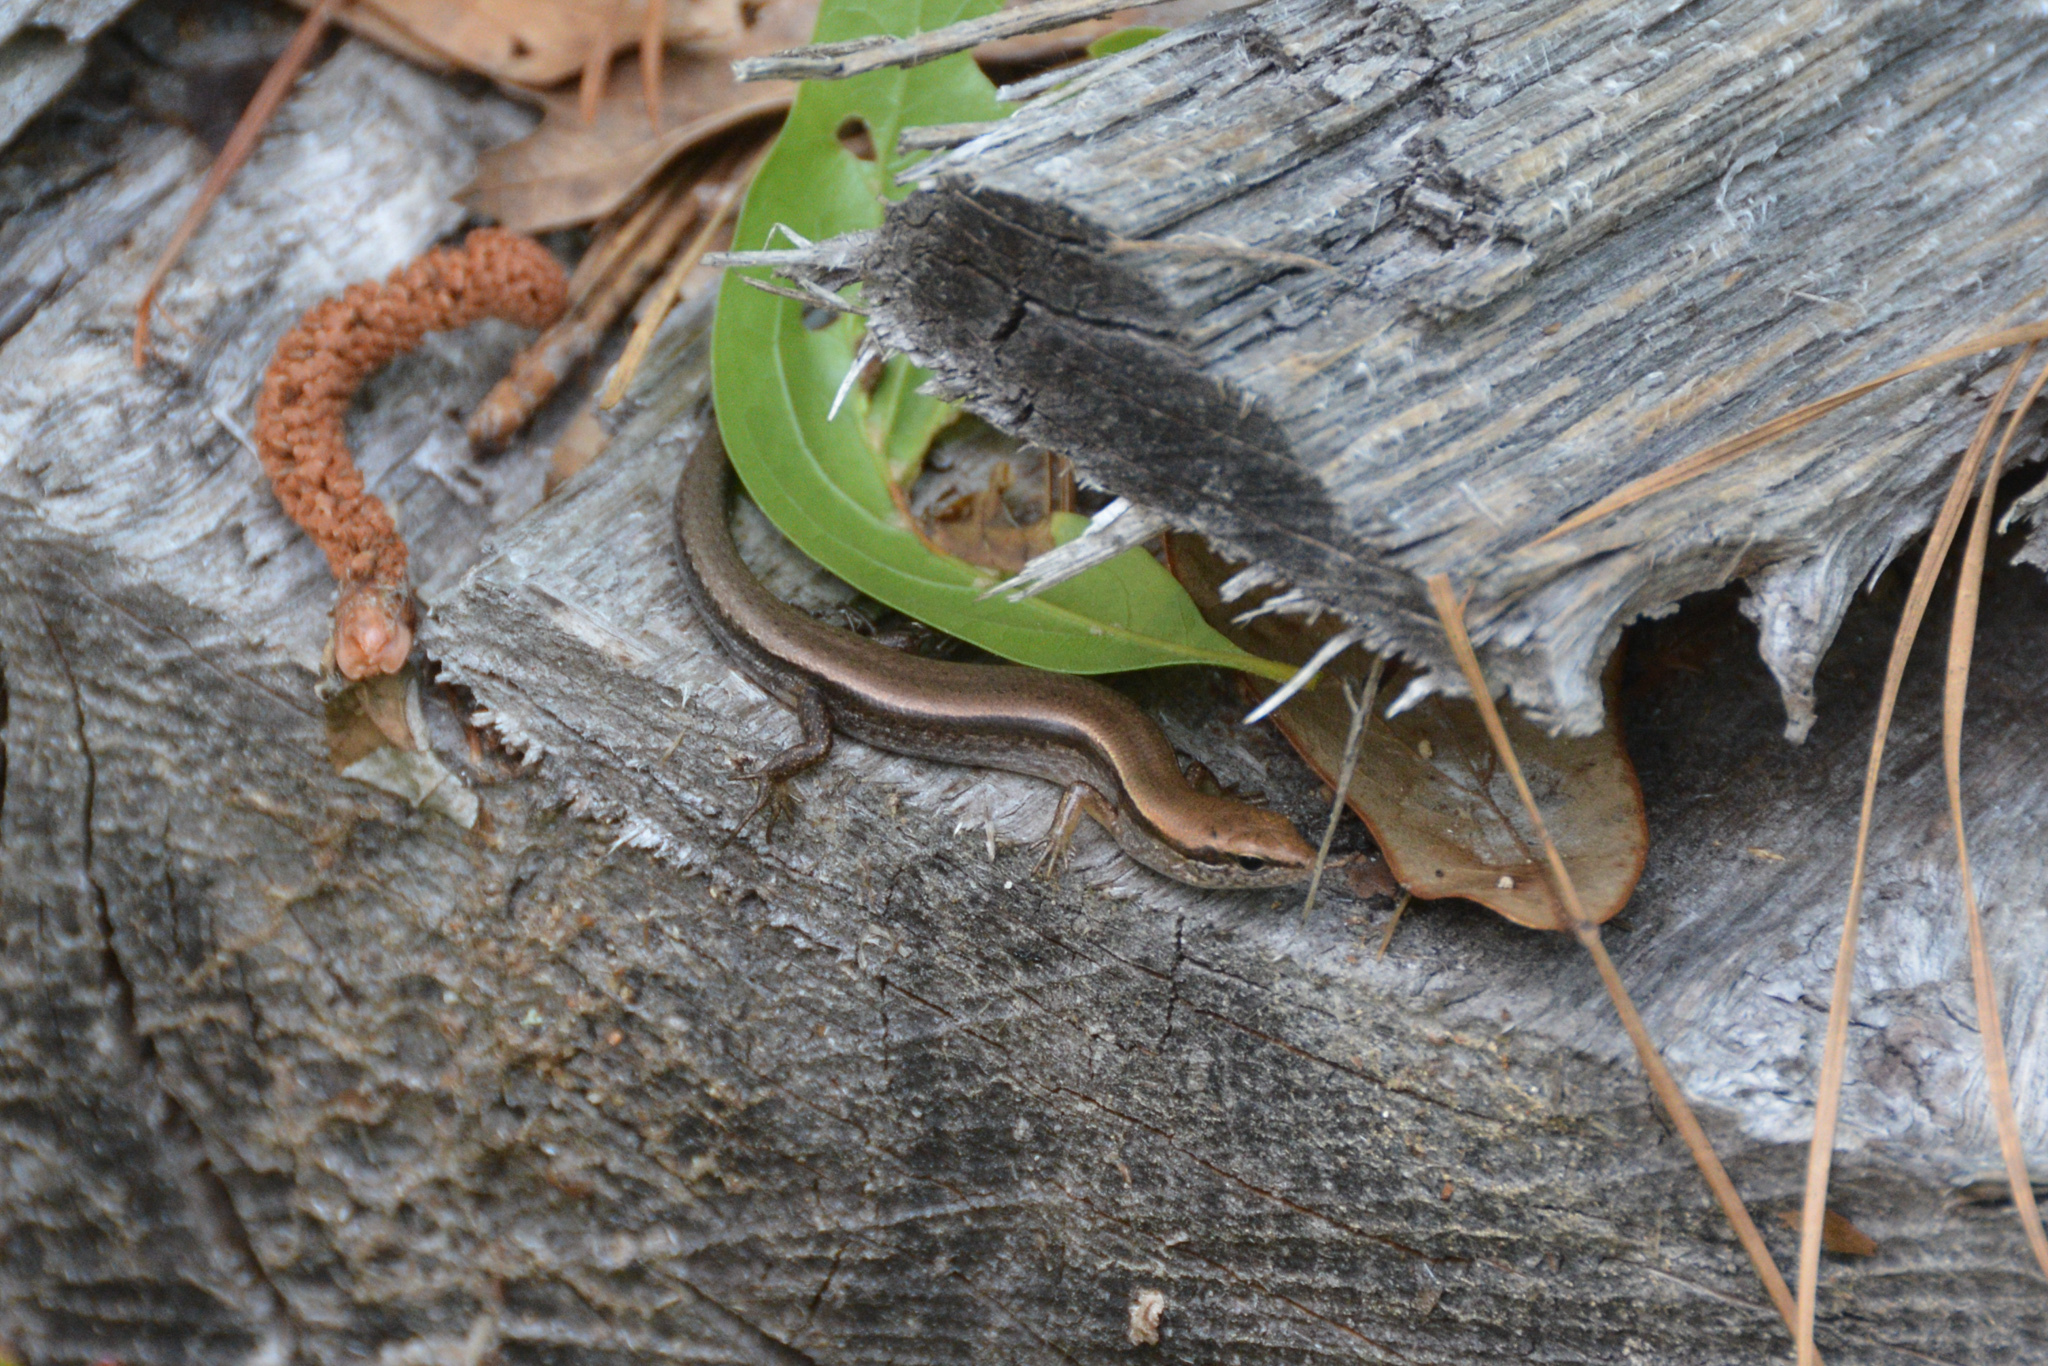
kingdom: Animalia
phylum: Chordata
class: Squamata
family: Scincidae
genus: Scincella
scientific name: Scincella lateralis
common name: Ground skink
